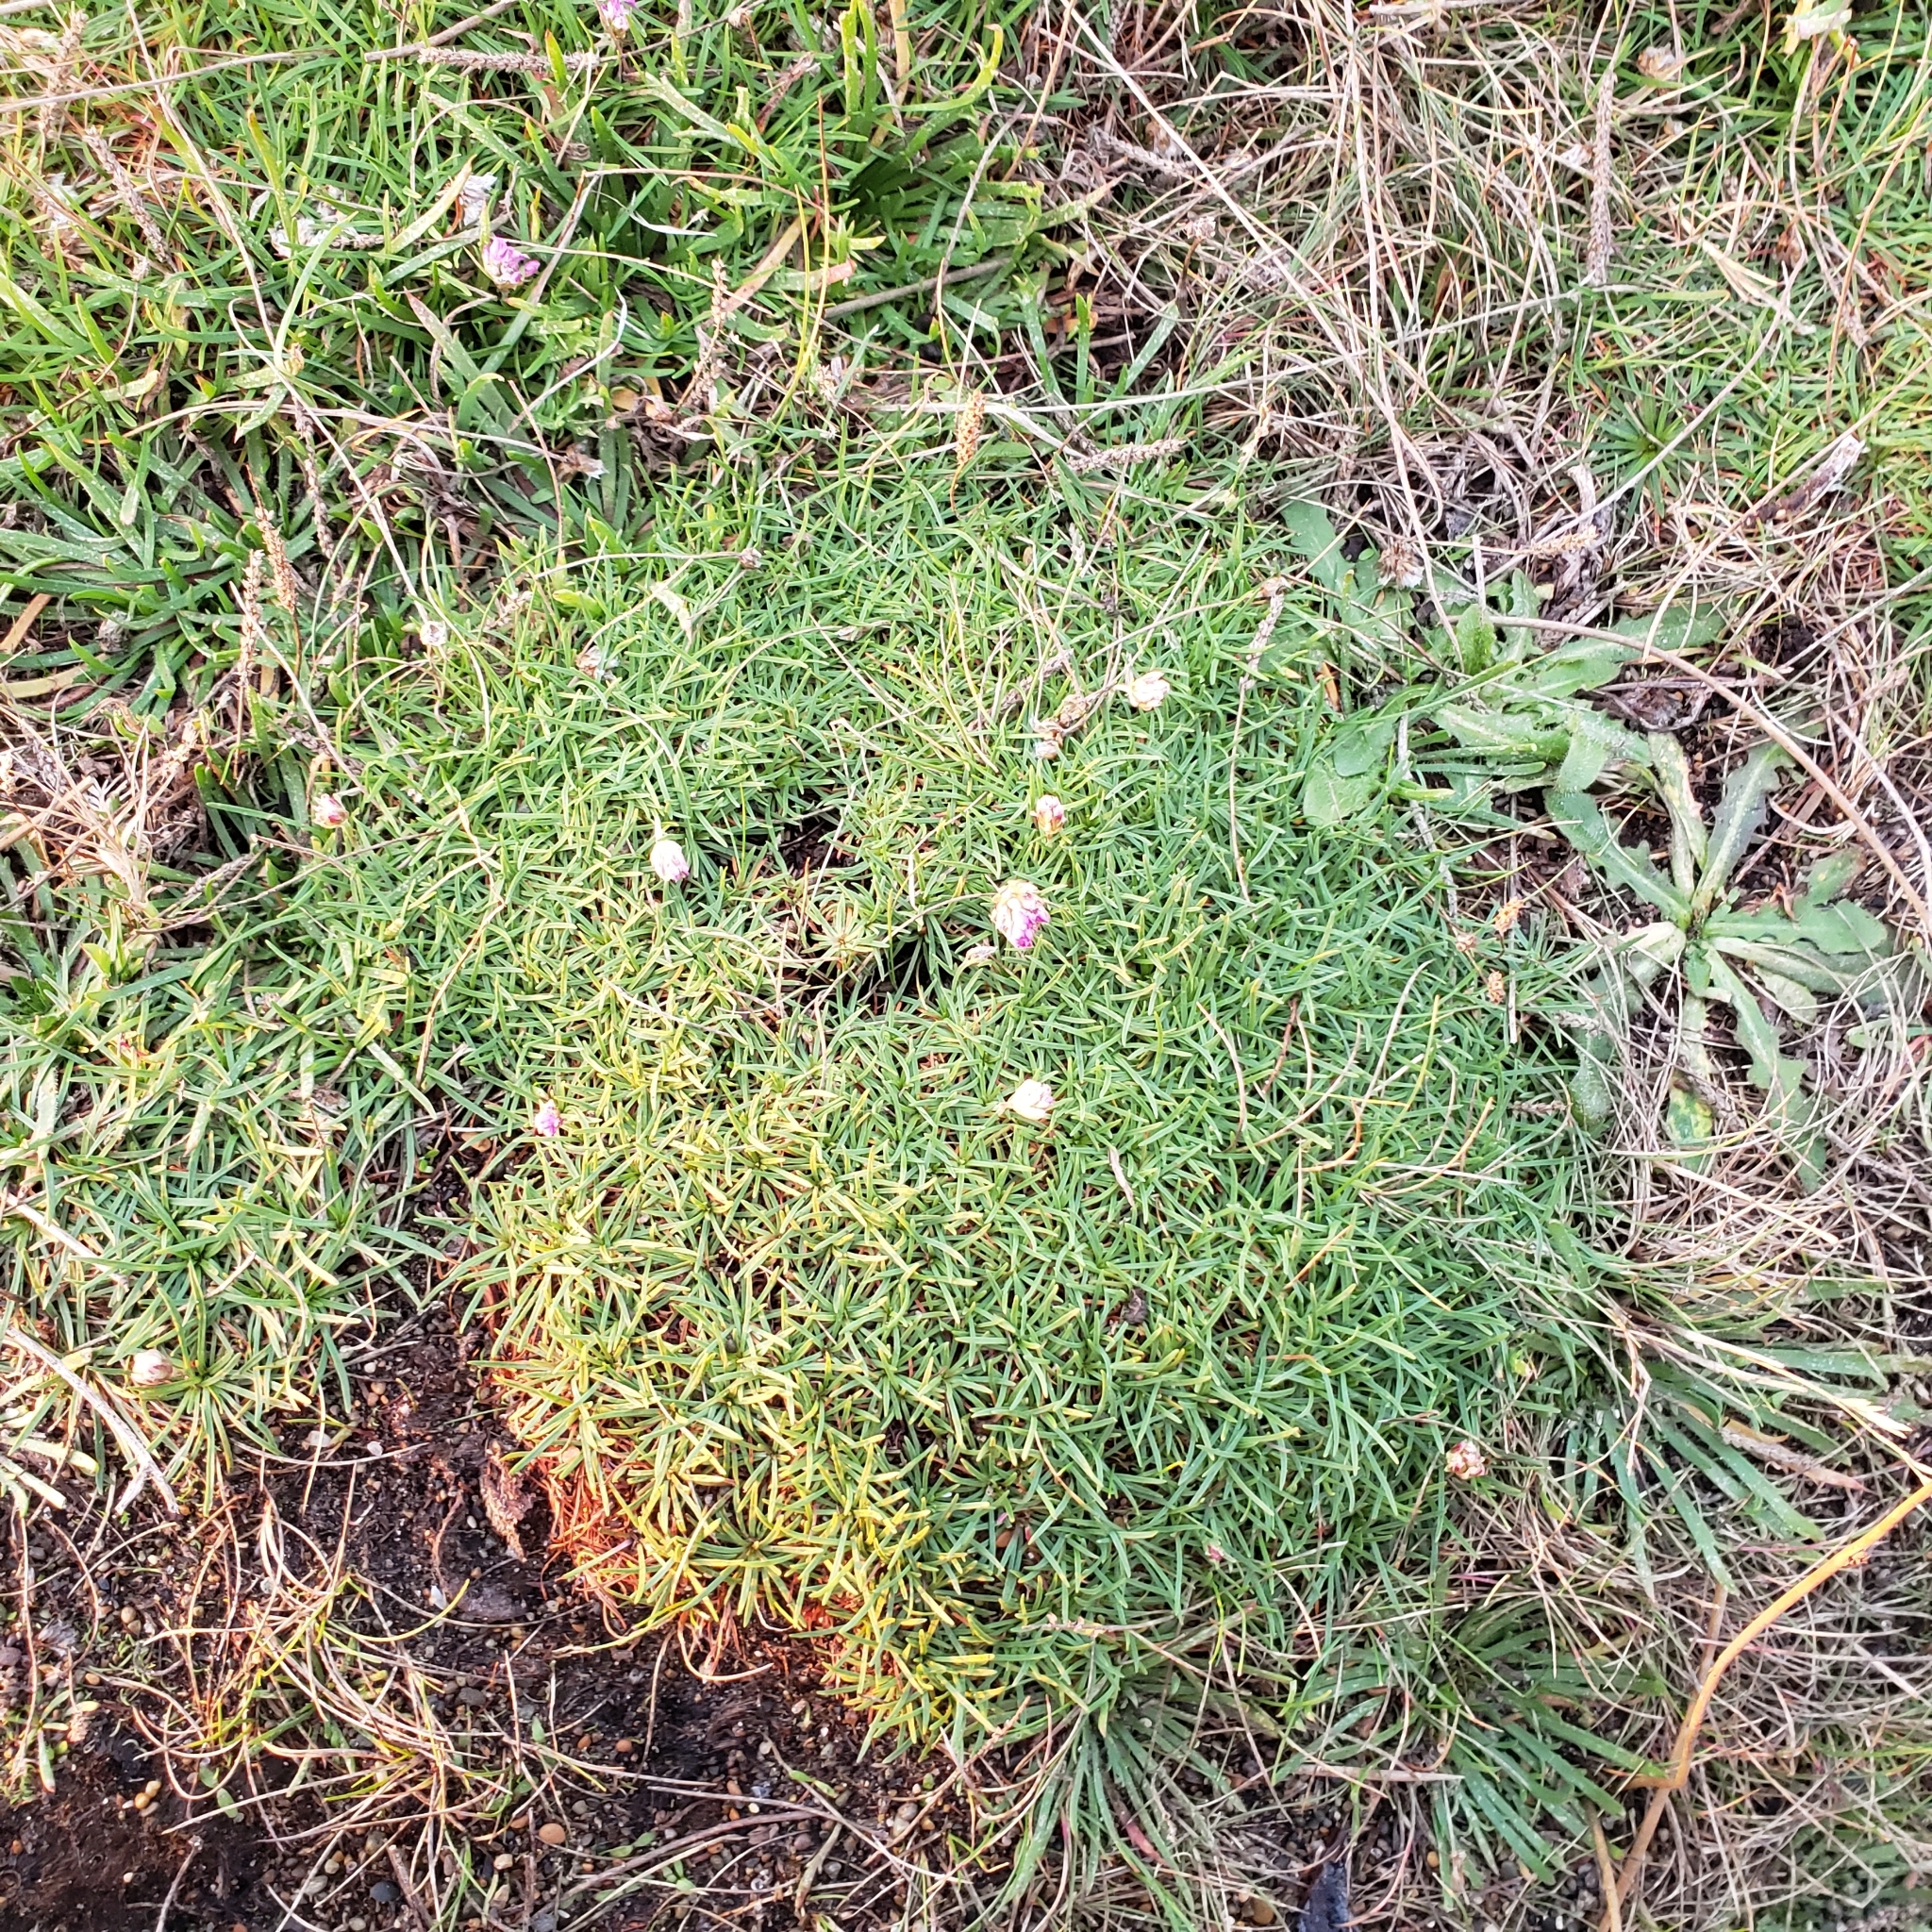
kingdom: Plantae
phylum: Tracheophyta
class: Magnoliopsida
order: Caryophyllales
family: Plumbaginaceae
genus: Armeria
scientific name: Armeria maritima
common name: Thrift
